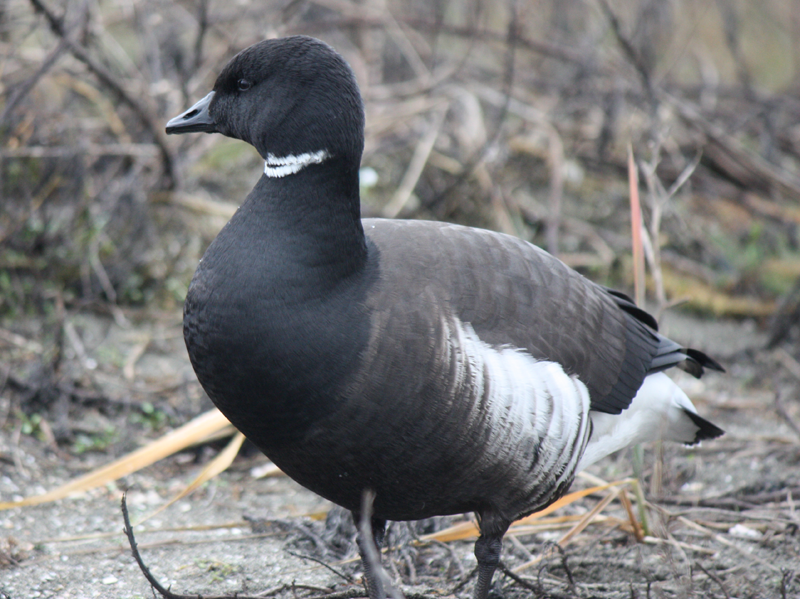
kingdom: Animalia
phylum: Chordata
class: Aves
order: Anseriformes
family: Anatidae
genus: Branta
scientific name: Branta bernicla
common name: Brant goose
